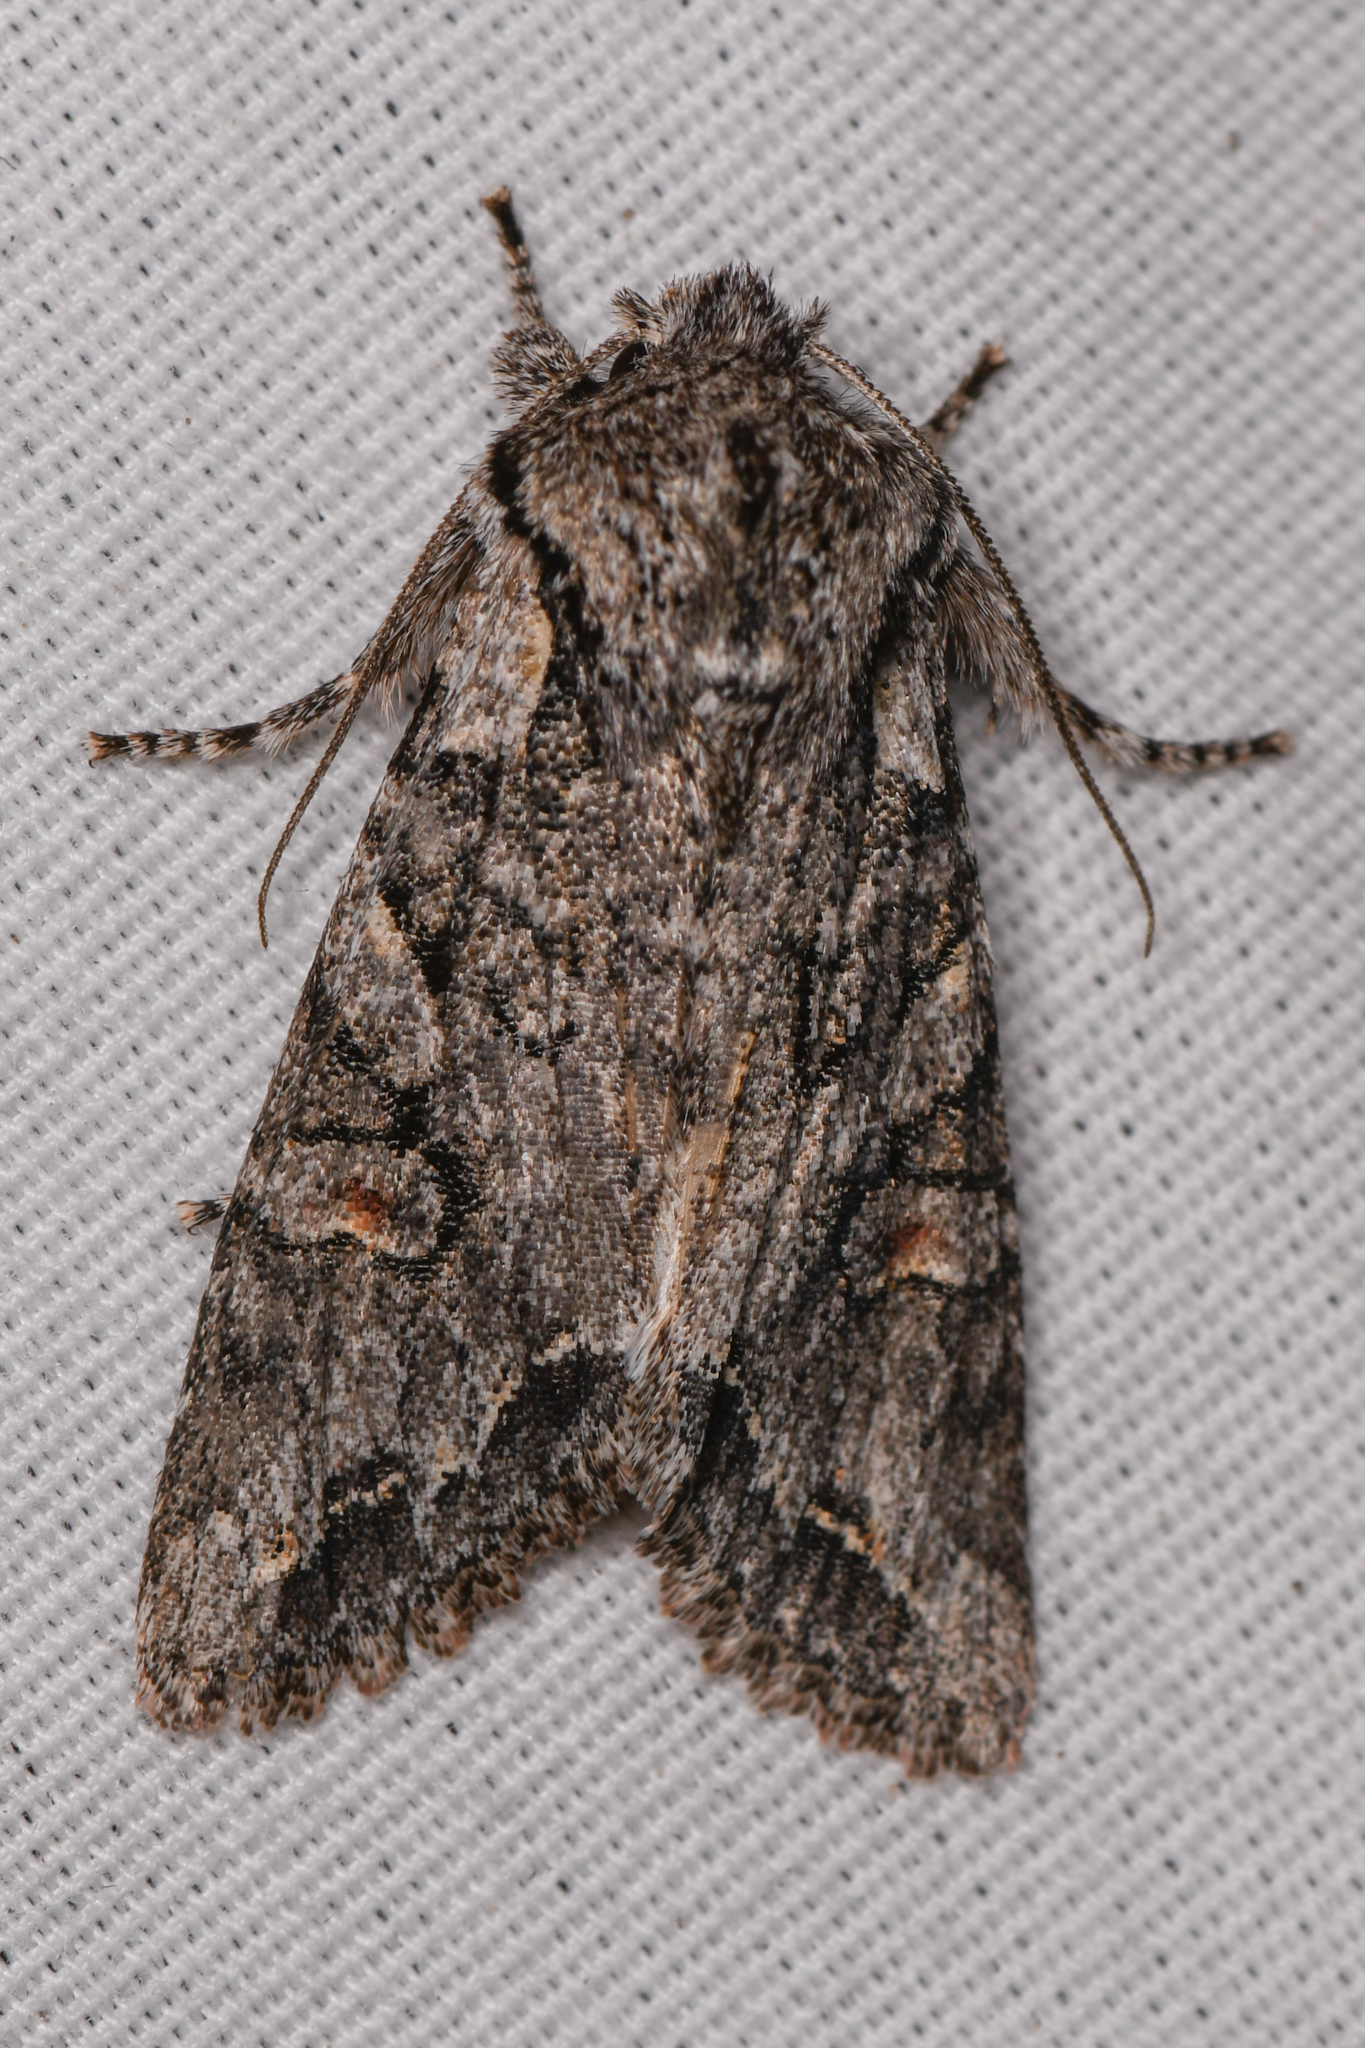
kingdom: Animalia
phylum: Arthropoda
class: Insecta
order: Lepidoptera
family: Noctuidae
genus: Egira
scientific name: Egira hiemalis
